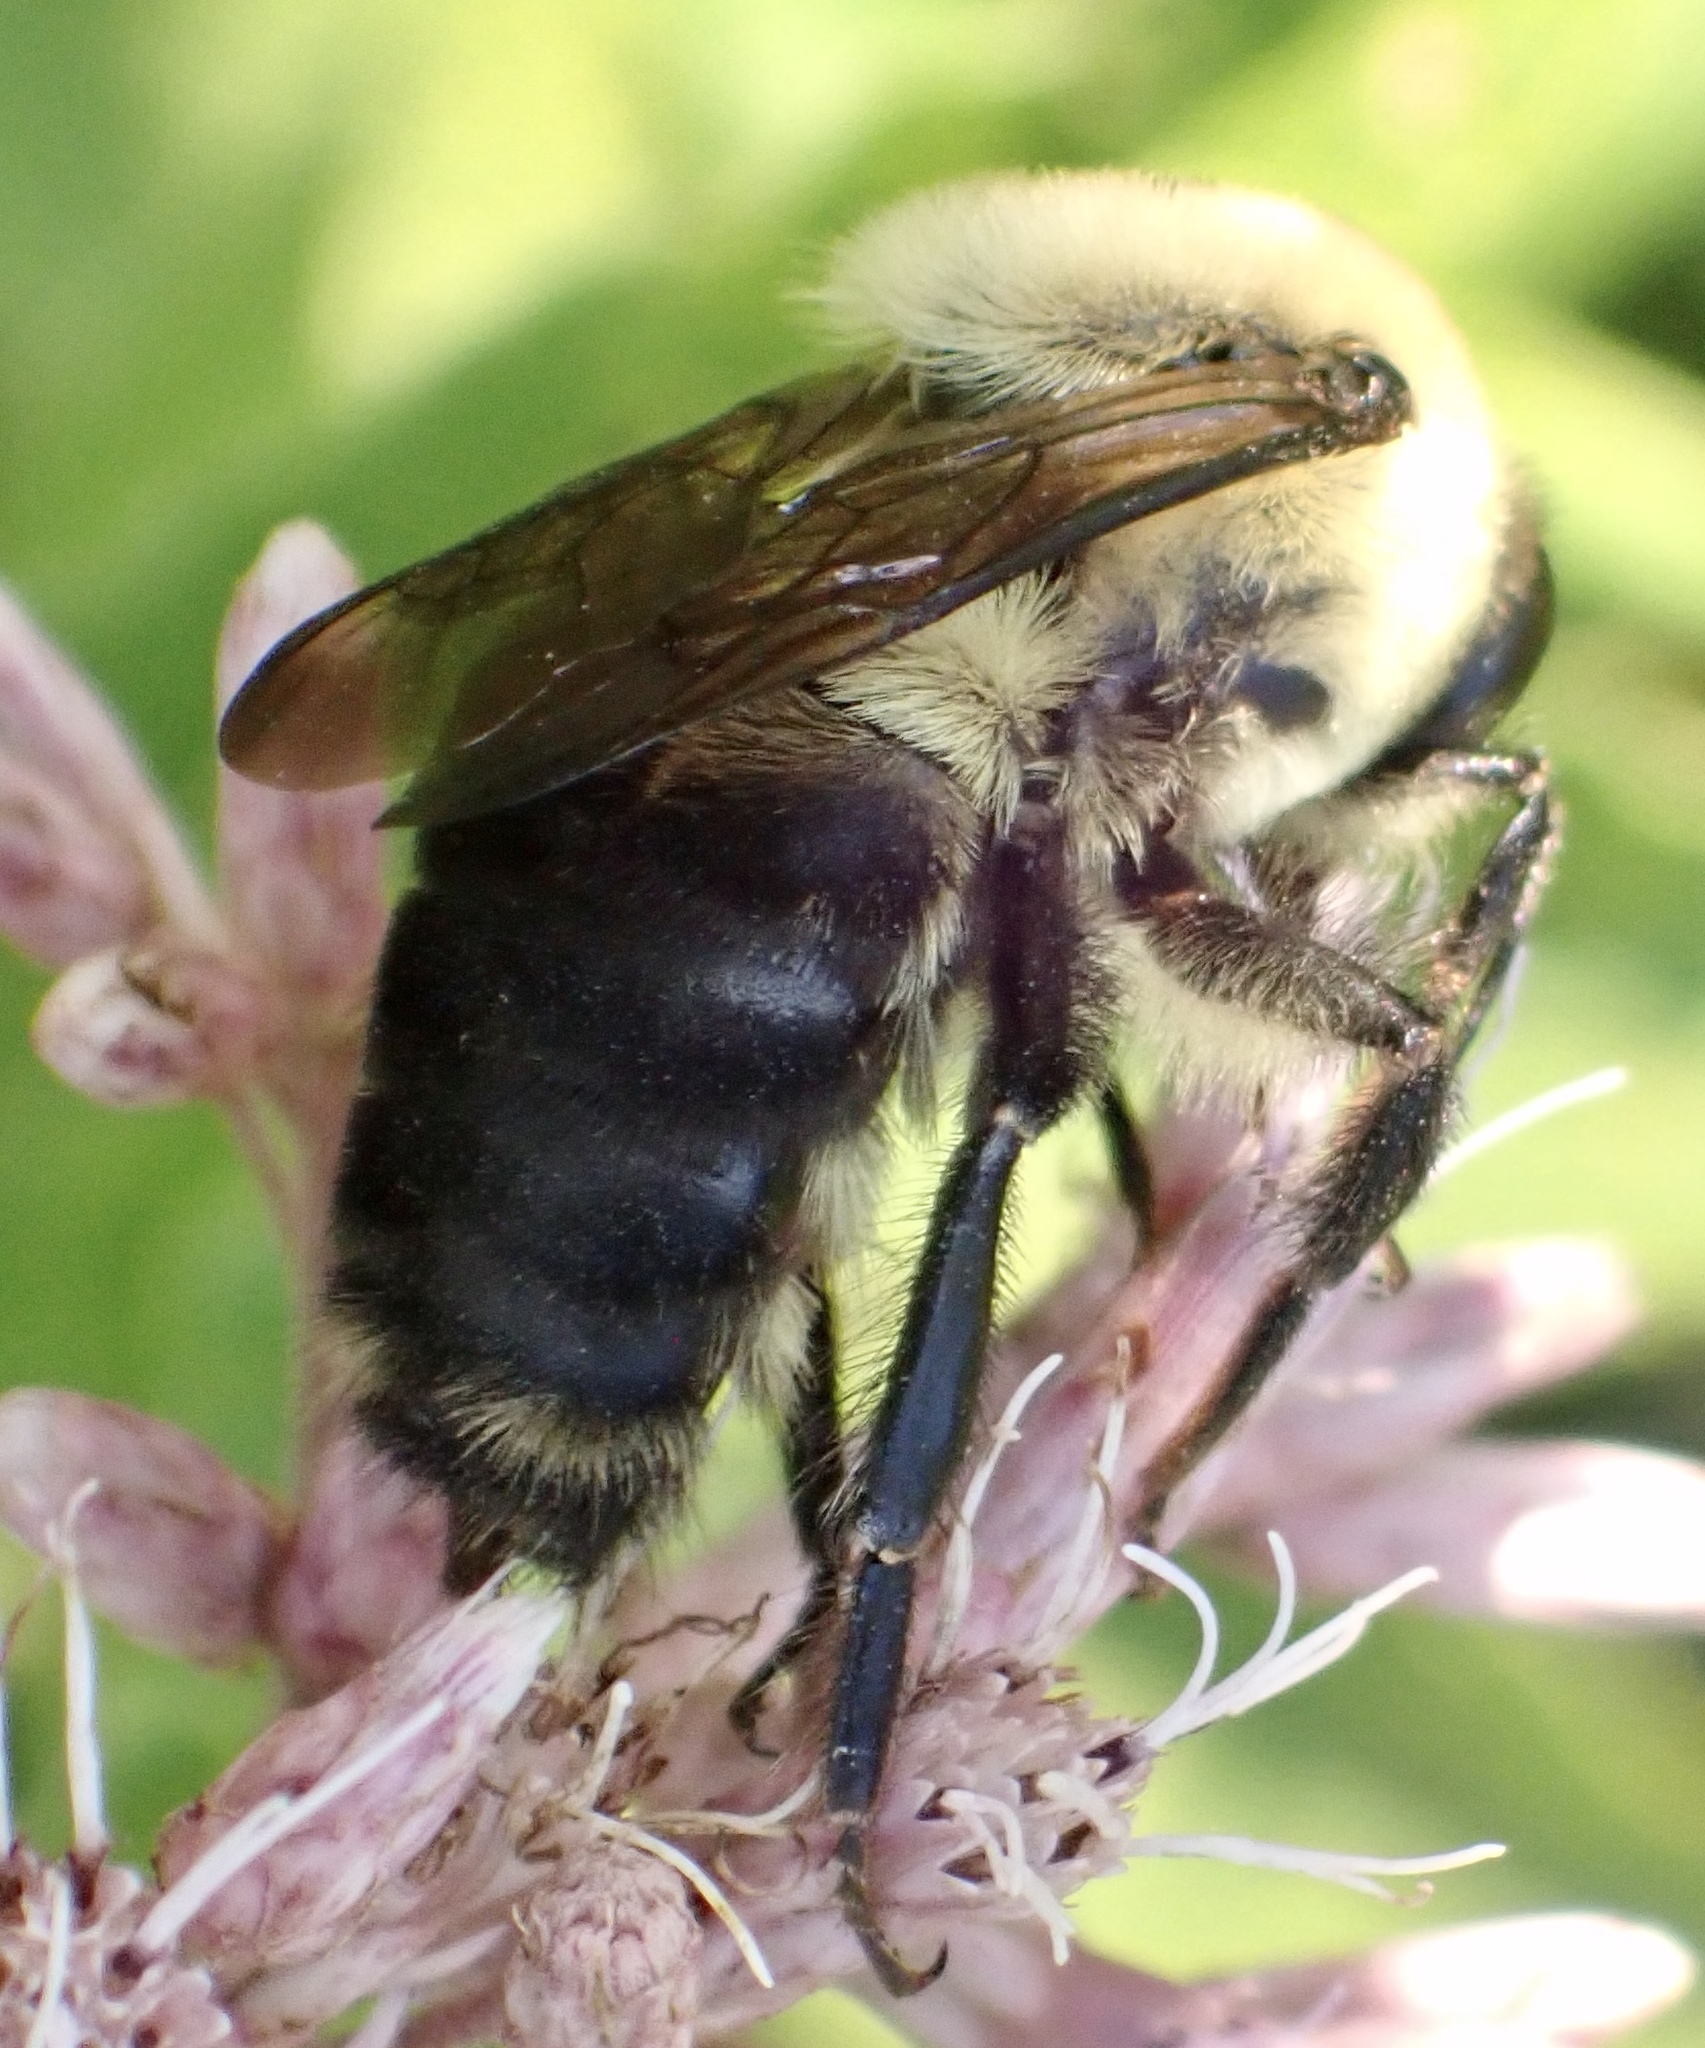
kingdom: Animalia
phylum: Arthropoda
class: Insecta
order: Hymenoptera
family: Apidae
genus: Bombus
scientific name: Bombus griseocollis
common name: Brown-belted bumble bee
